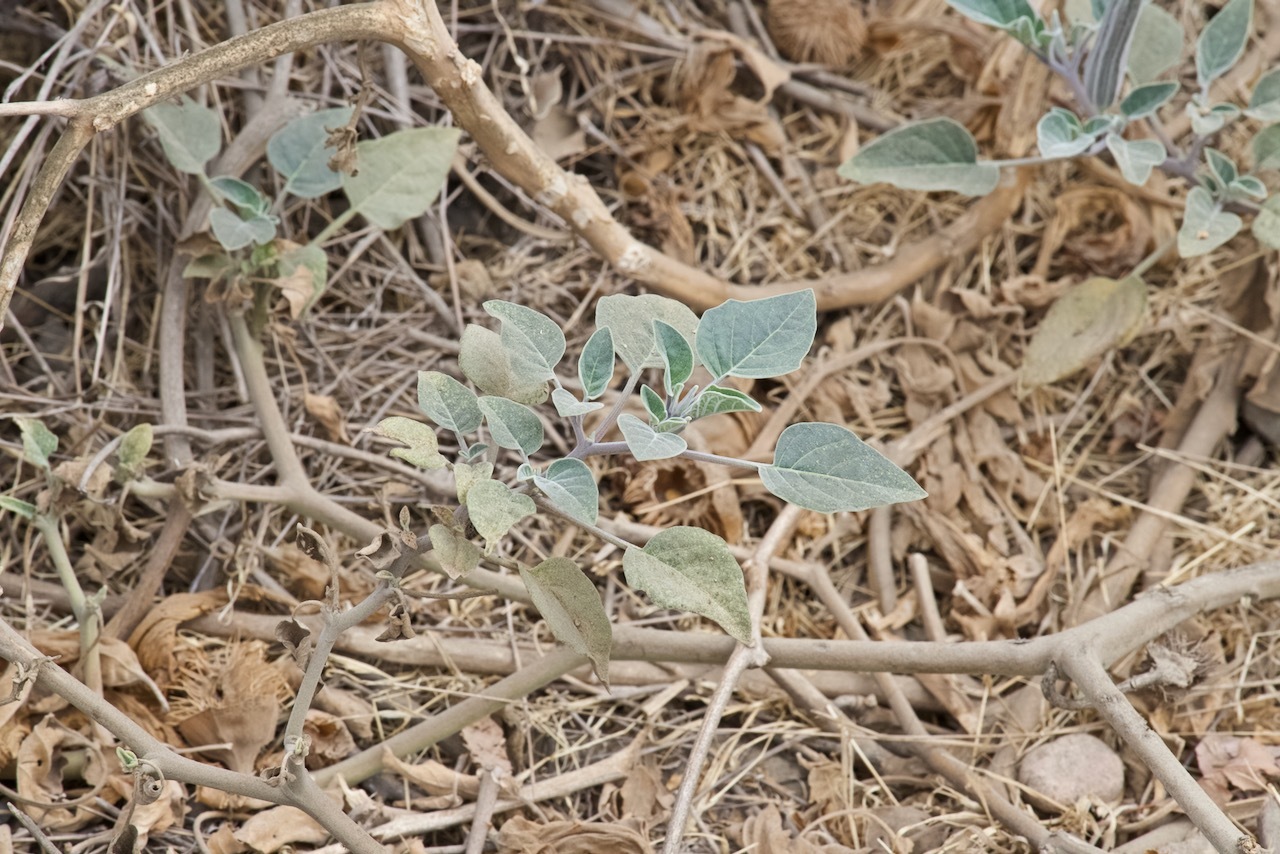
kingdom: Plantae
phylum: Tracheophyta
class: Magnoliopsida
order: Solanales
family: Solanaceae
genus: Datura
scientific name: Datura wrightii
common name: Sacred thorn-apple
